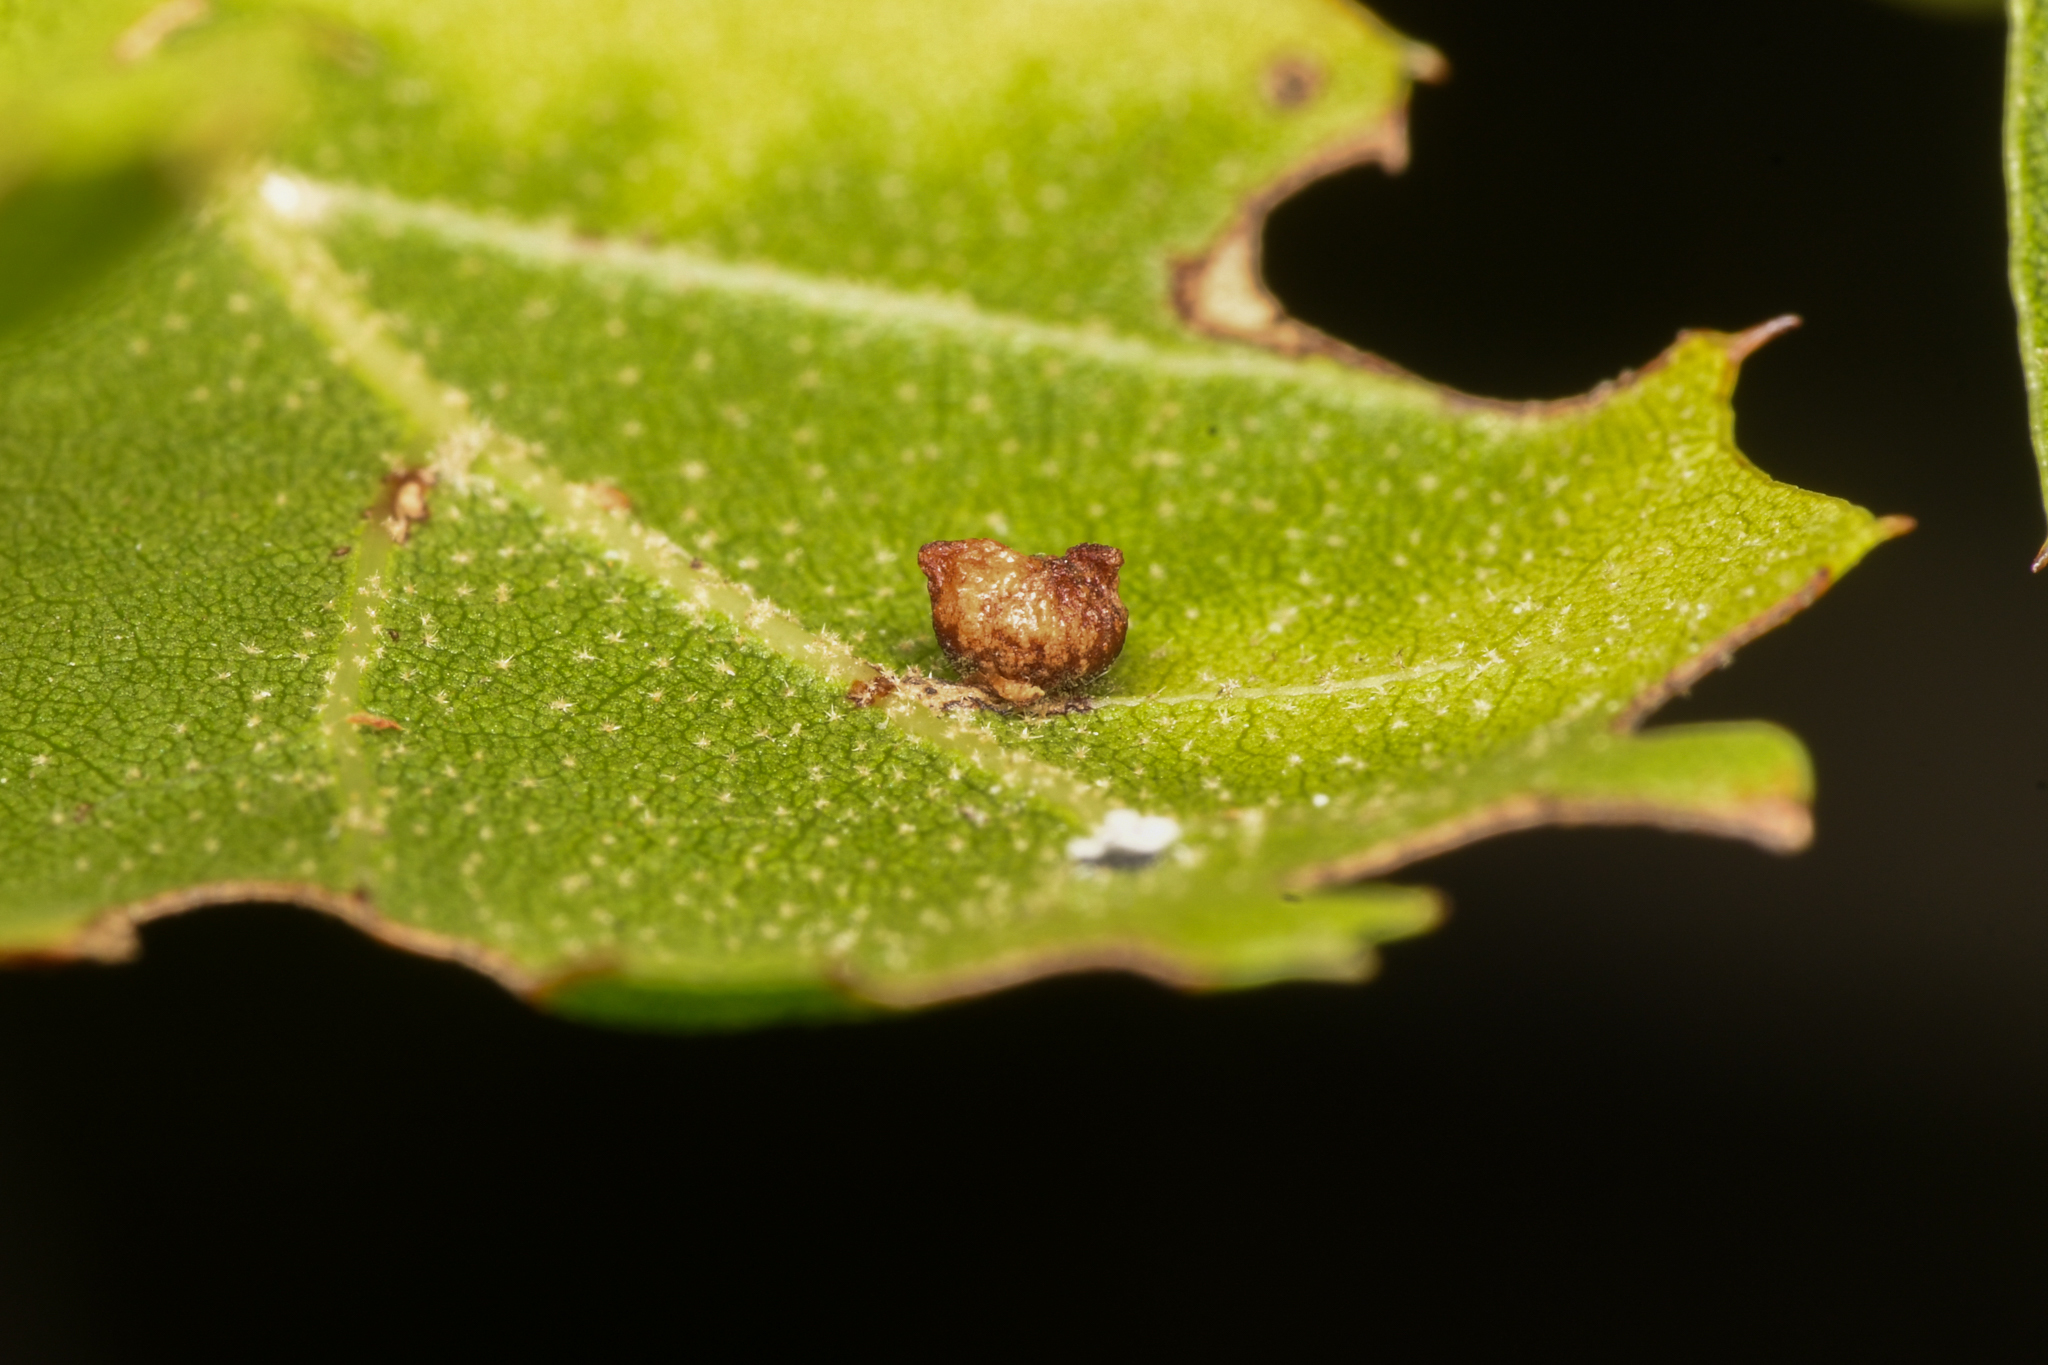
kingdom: Animalia
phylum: Arthropoda
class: Insecta
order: Hymenoptera
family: Cynipidae
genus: Dryocosmus
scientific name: Dryocosmus
